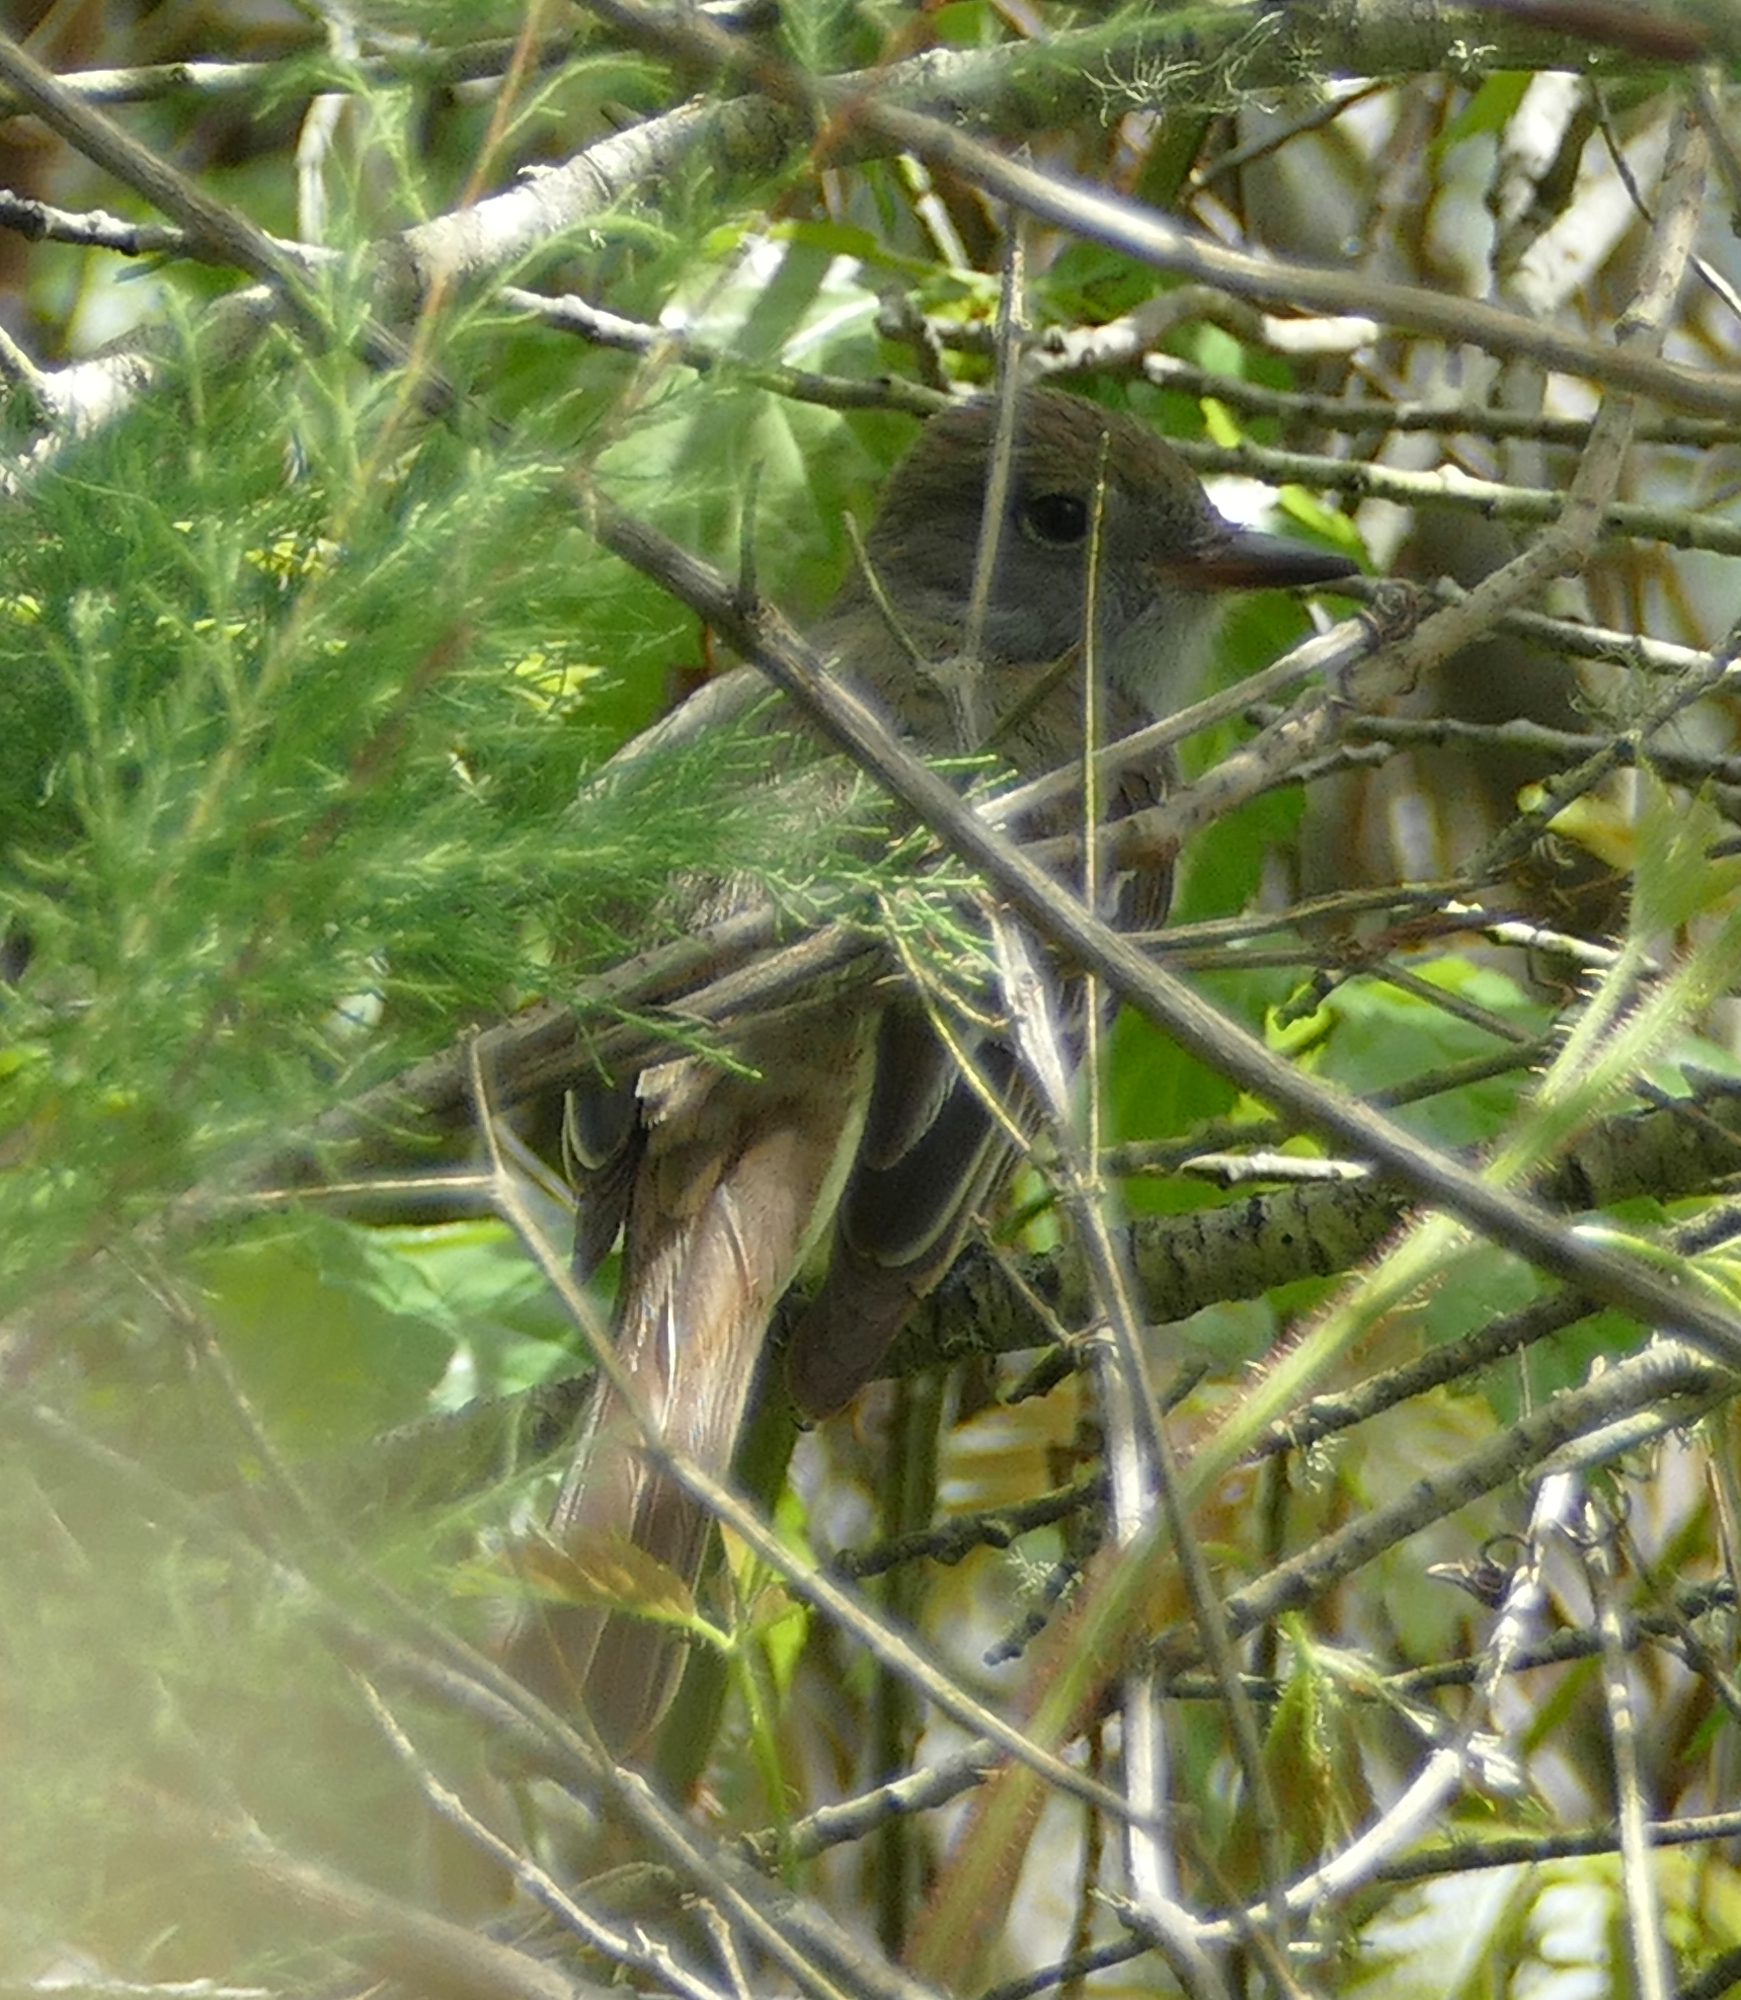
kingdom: Animalia
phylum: Chordata
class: Aves
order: Passeriformes
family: Tyrannidae
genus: Myiarchus
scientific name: Myiarchus crinitus
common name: Great crested flycatcher
